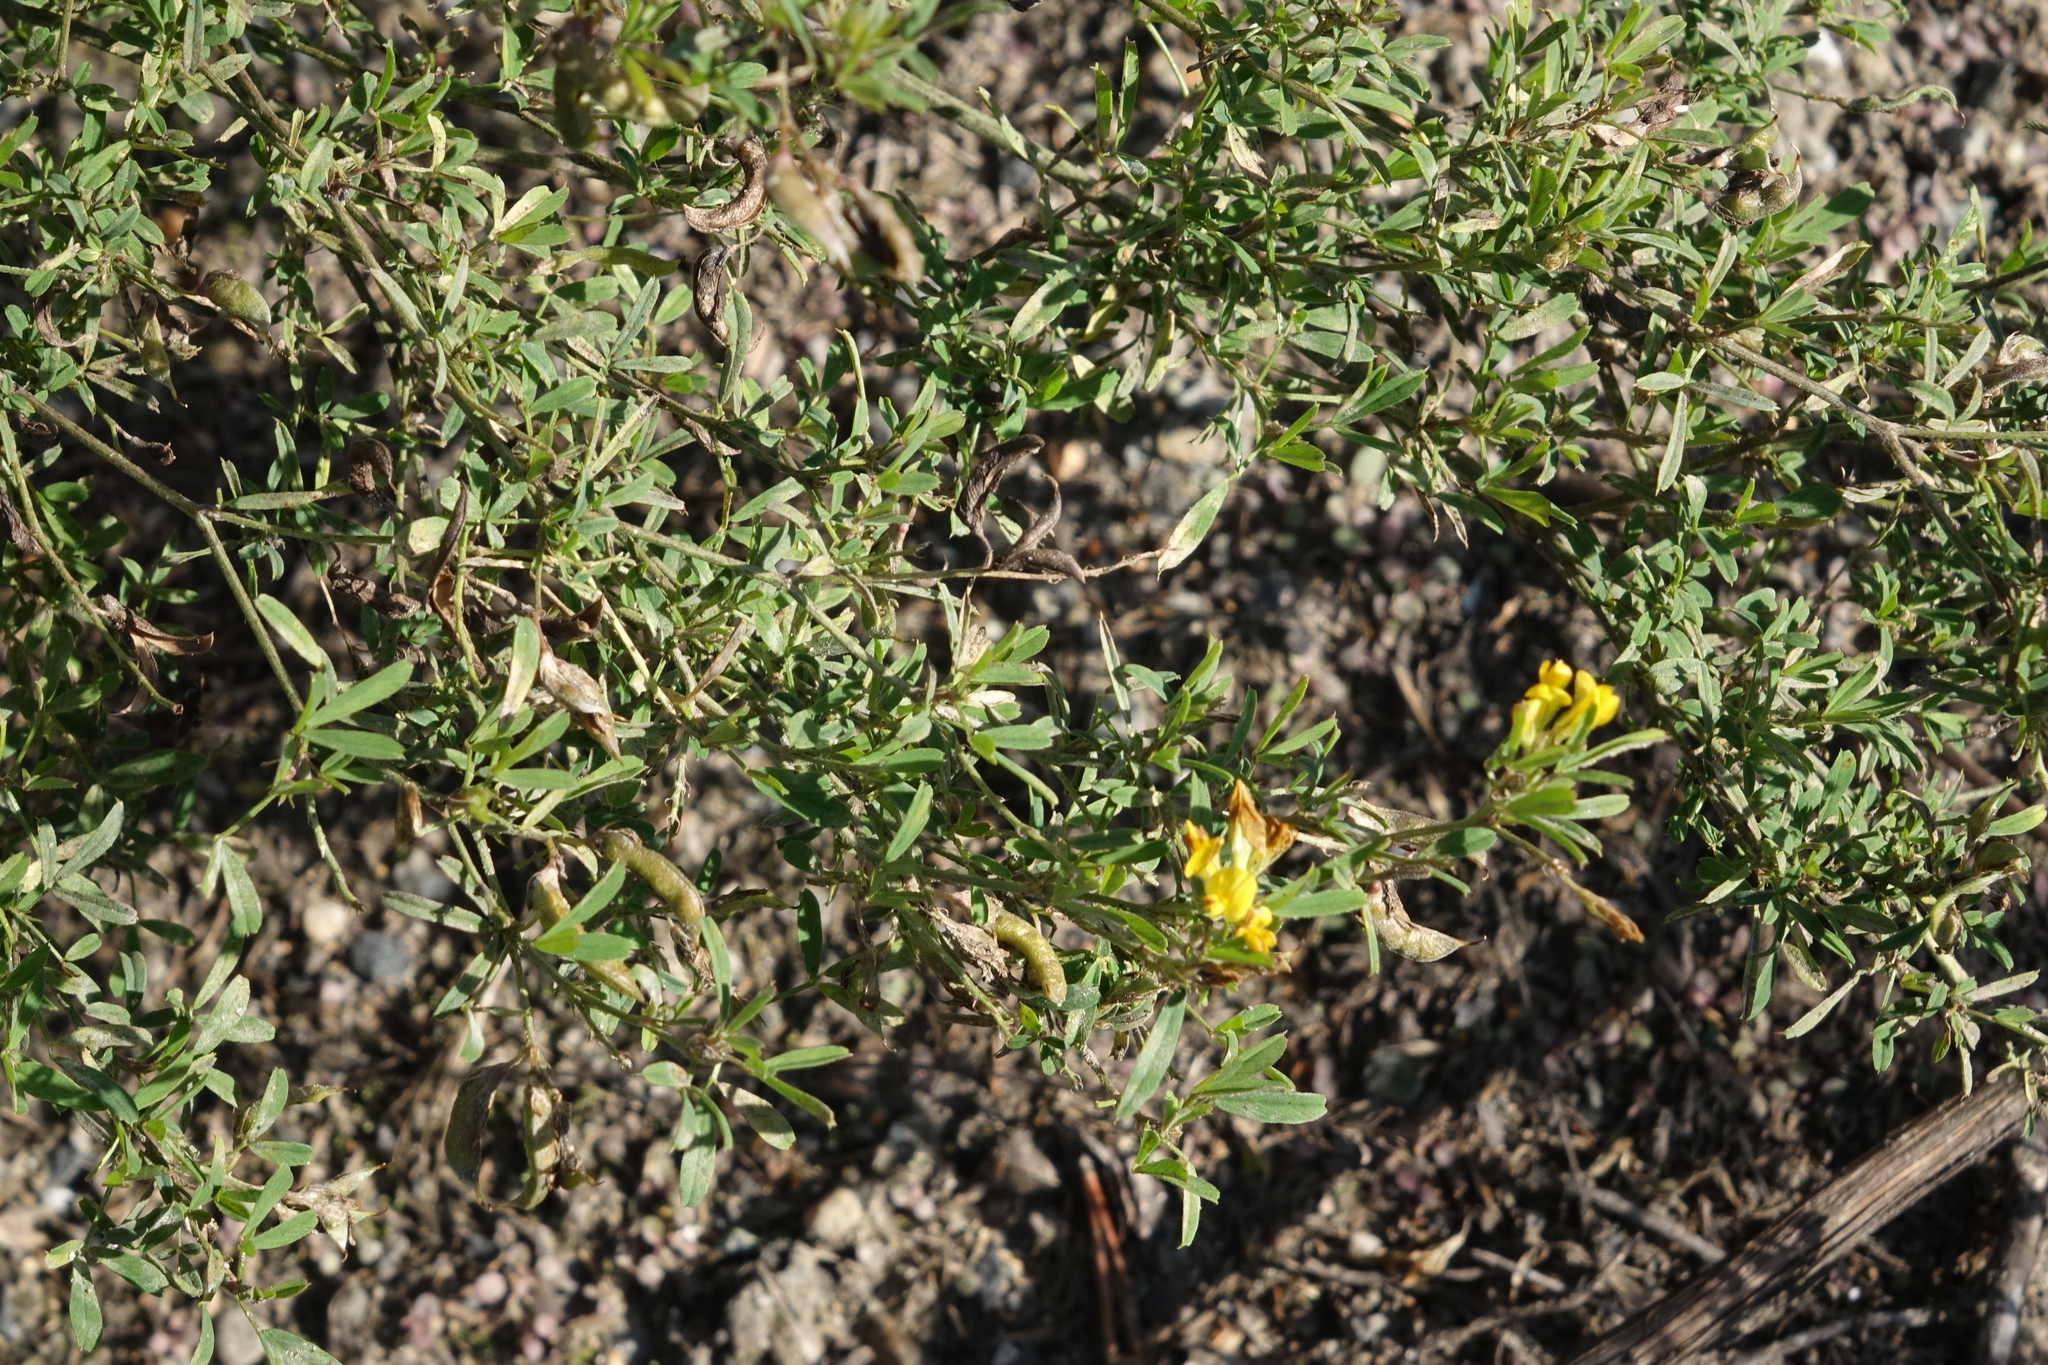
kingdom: Plantae
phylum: Tracheophyta
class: Magnoliopsida
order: Fabales
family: Fabaceae
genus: Medicago
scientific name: Medicago falcata
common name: Sickle medick
